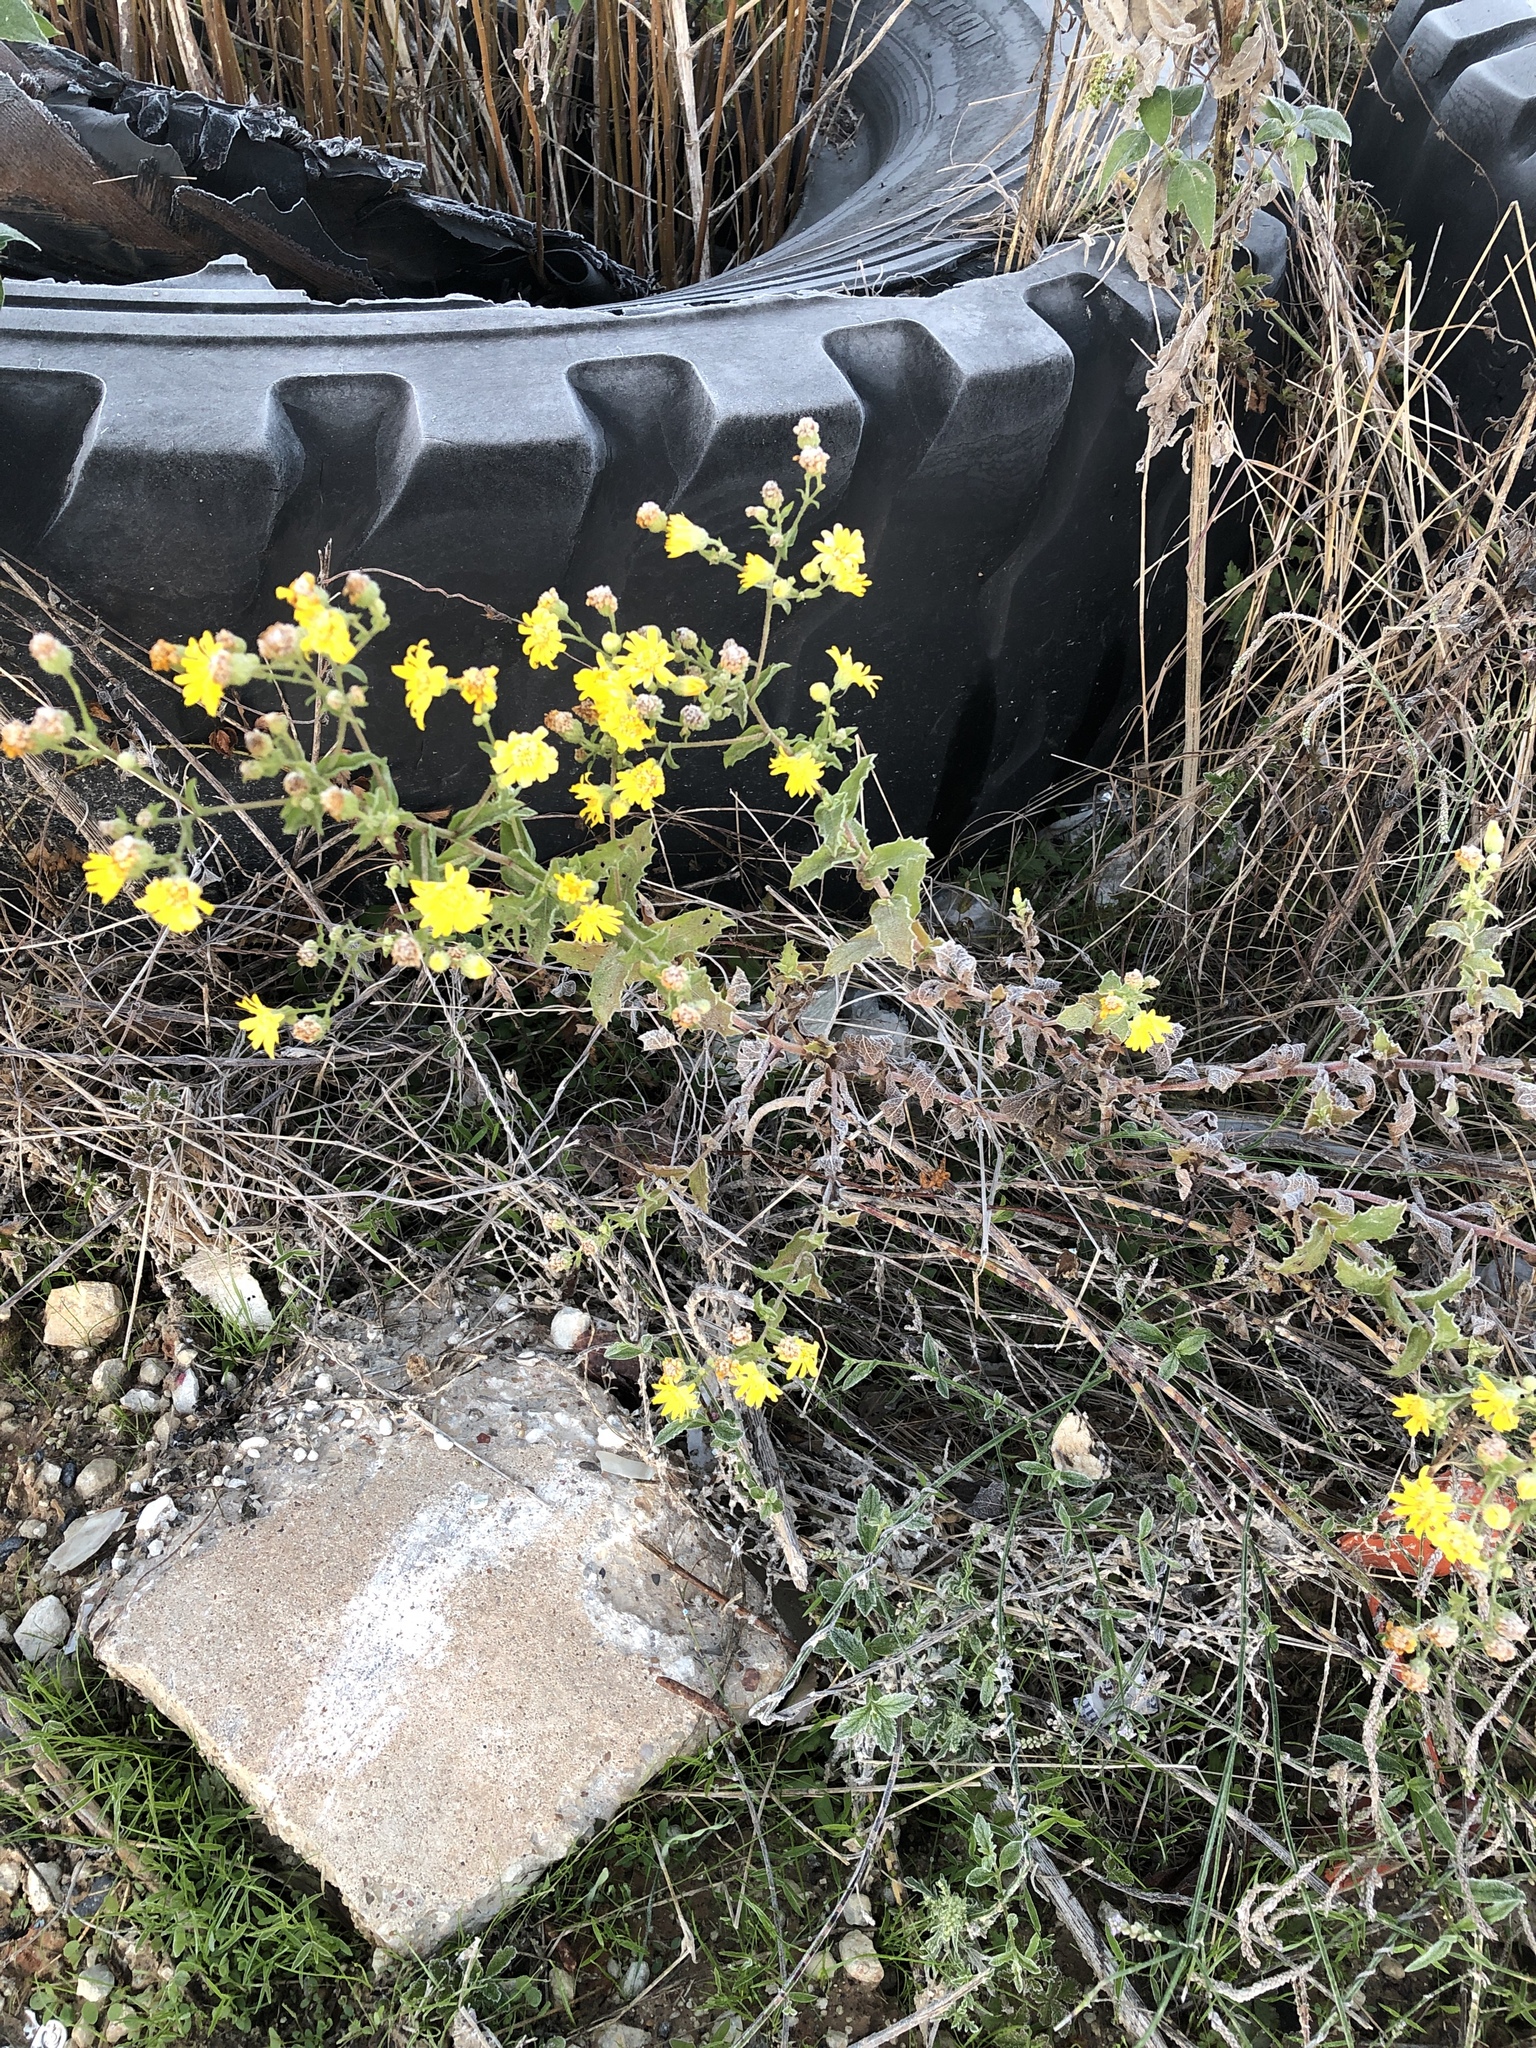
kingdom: Plantae
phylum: Tracheophyta
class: Magnoliopsida
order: Asterales
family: Asteraceae
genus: Heterotheca
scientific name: Heterotheca subaxillaris
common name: Camphorweed
